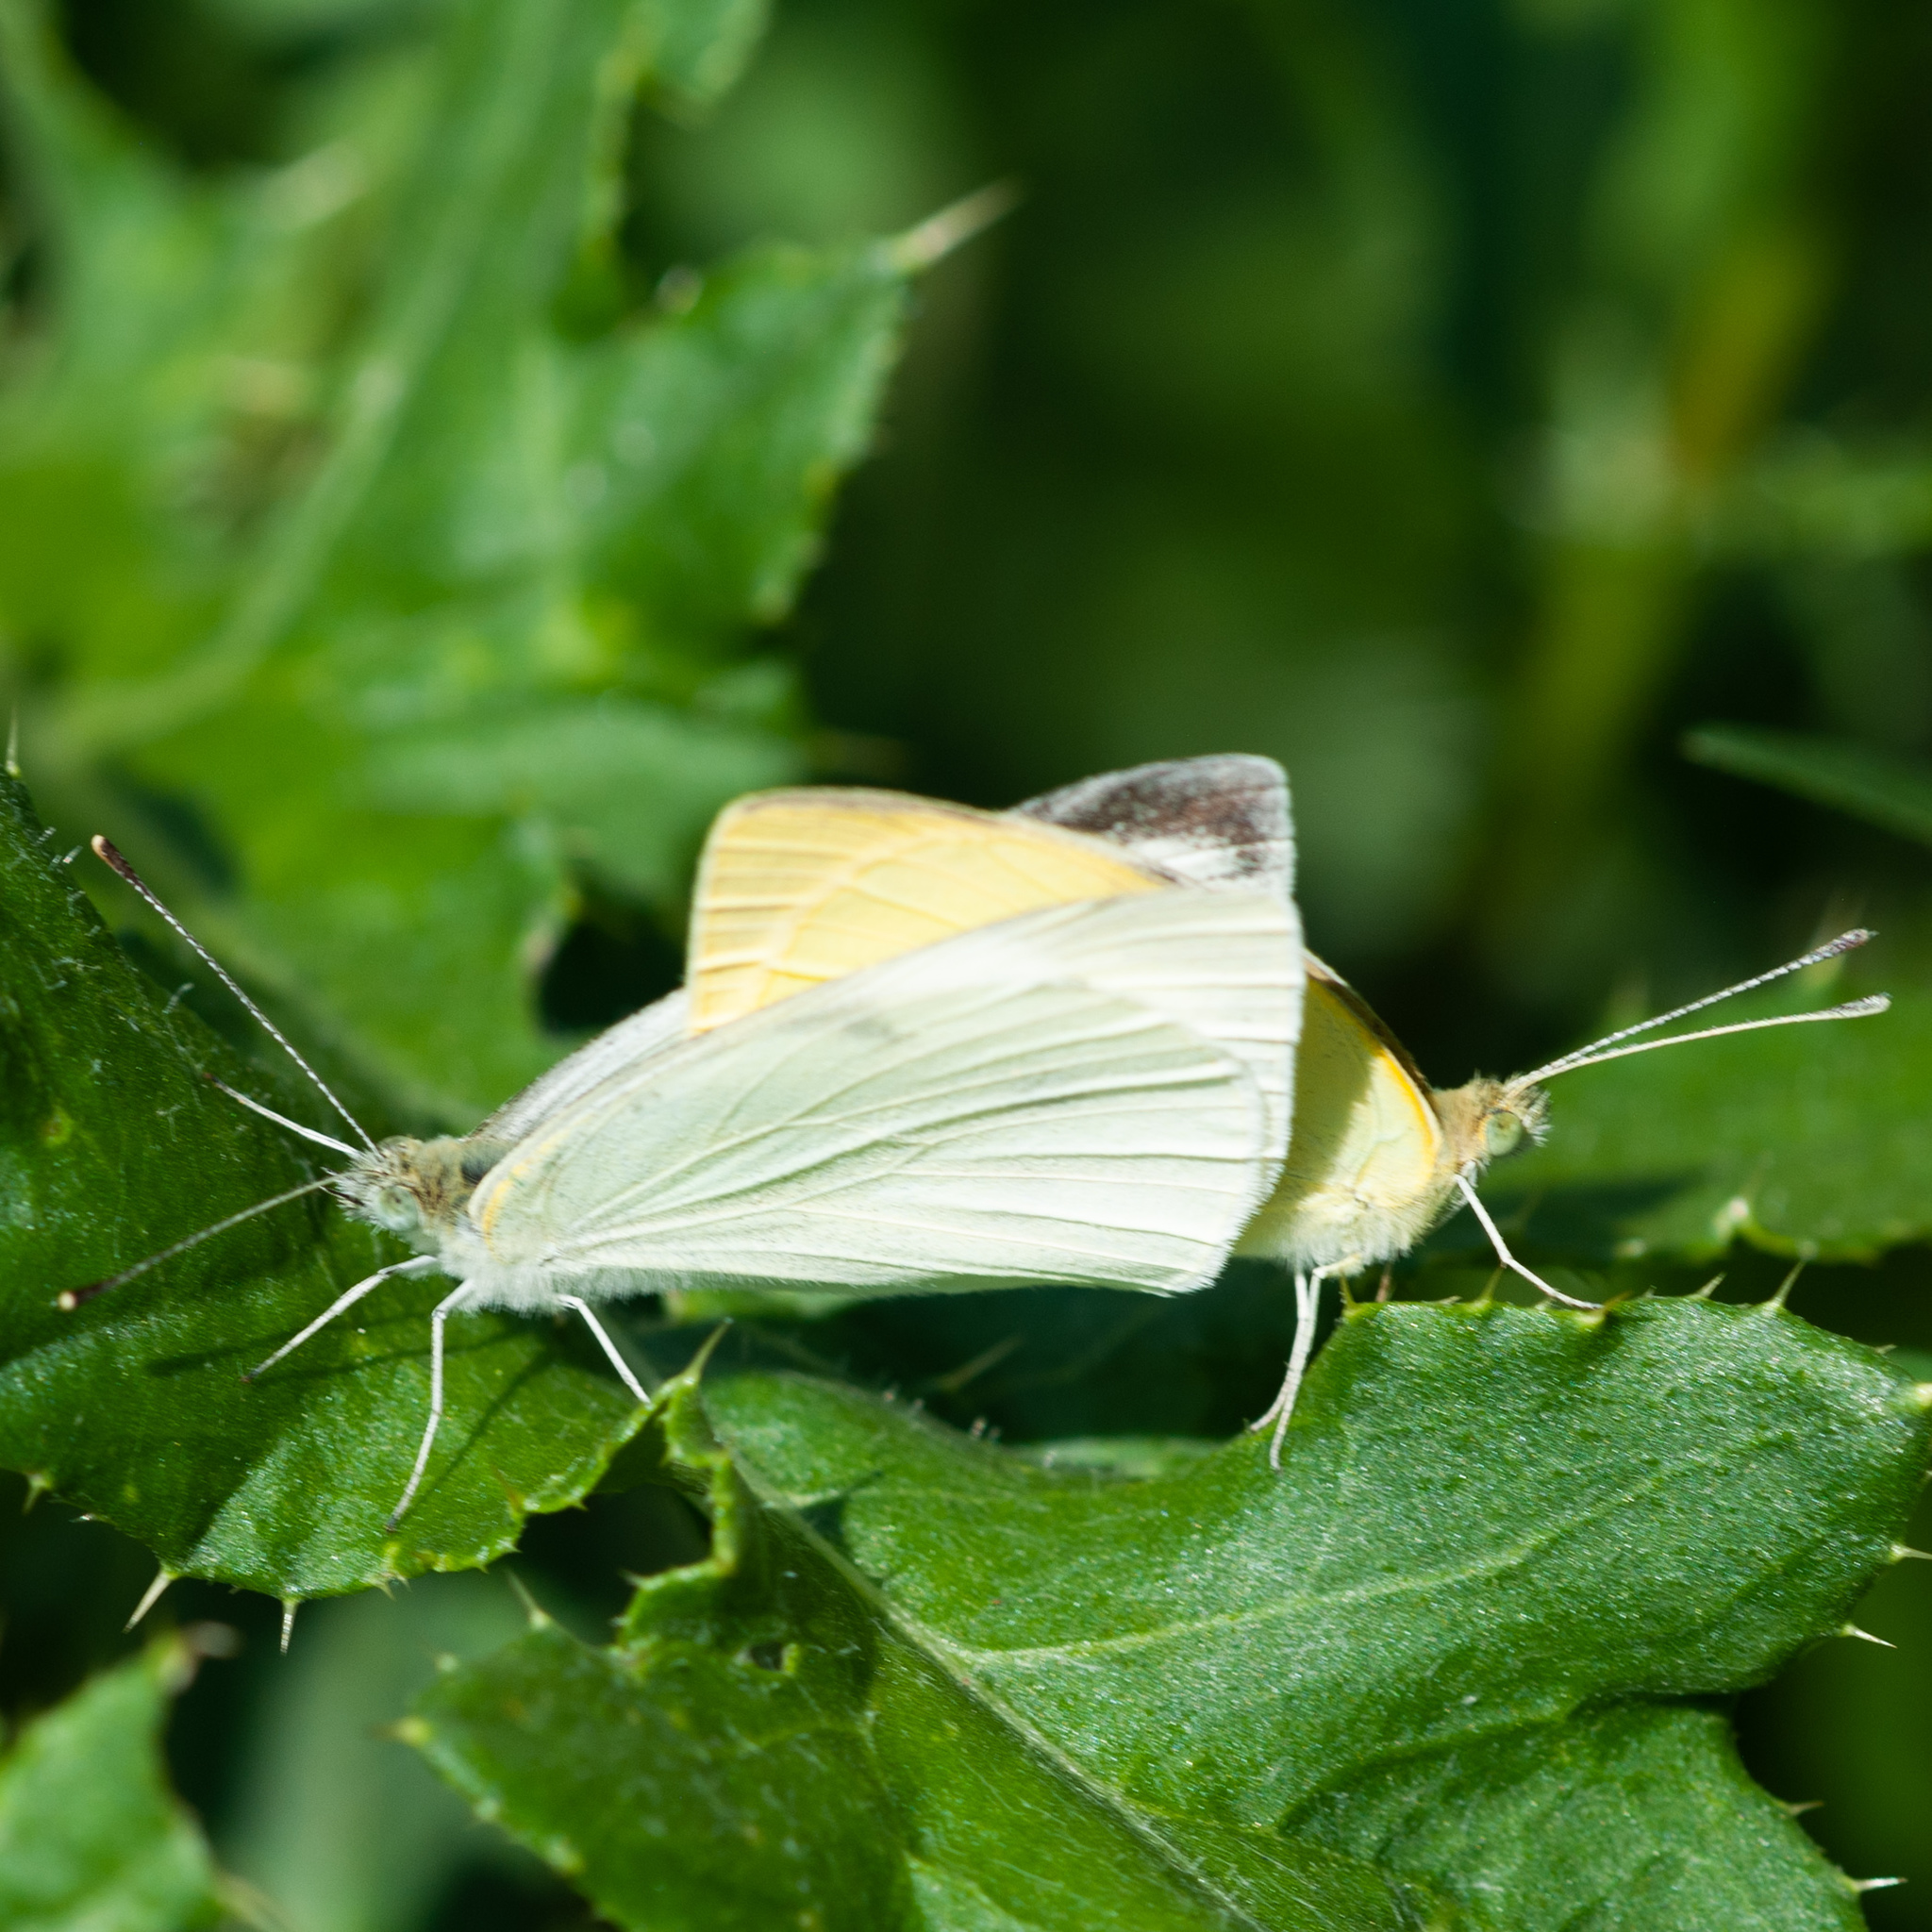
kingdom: Animalia
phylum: Arthropoda
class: Insecta
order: Lepidoptera
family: Pieridae
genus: Pieris
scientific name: Pieris rapae
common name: Small white
